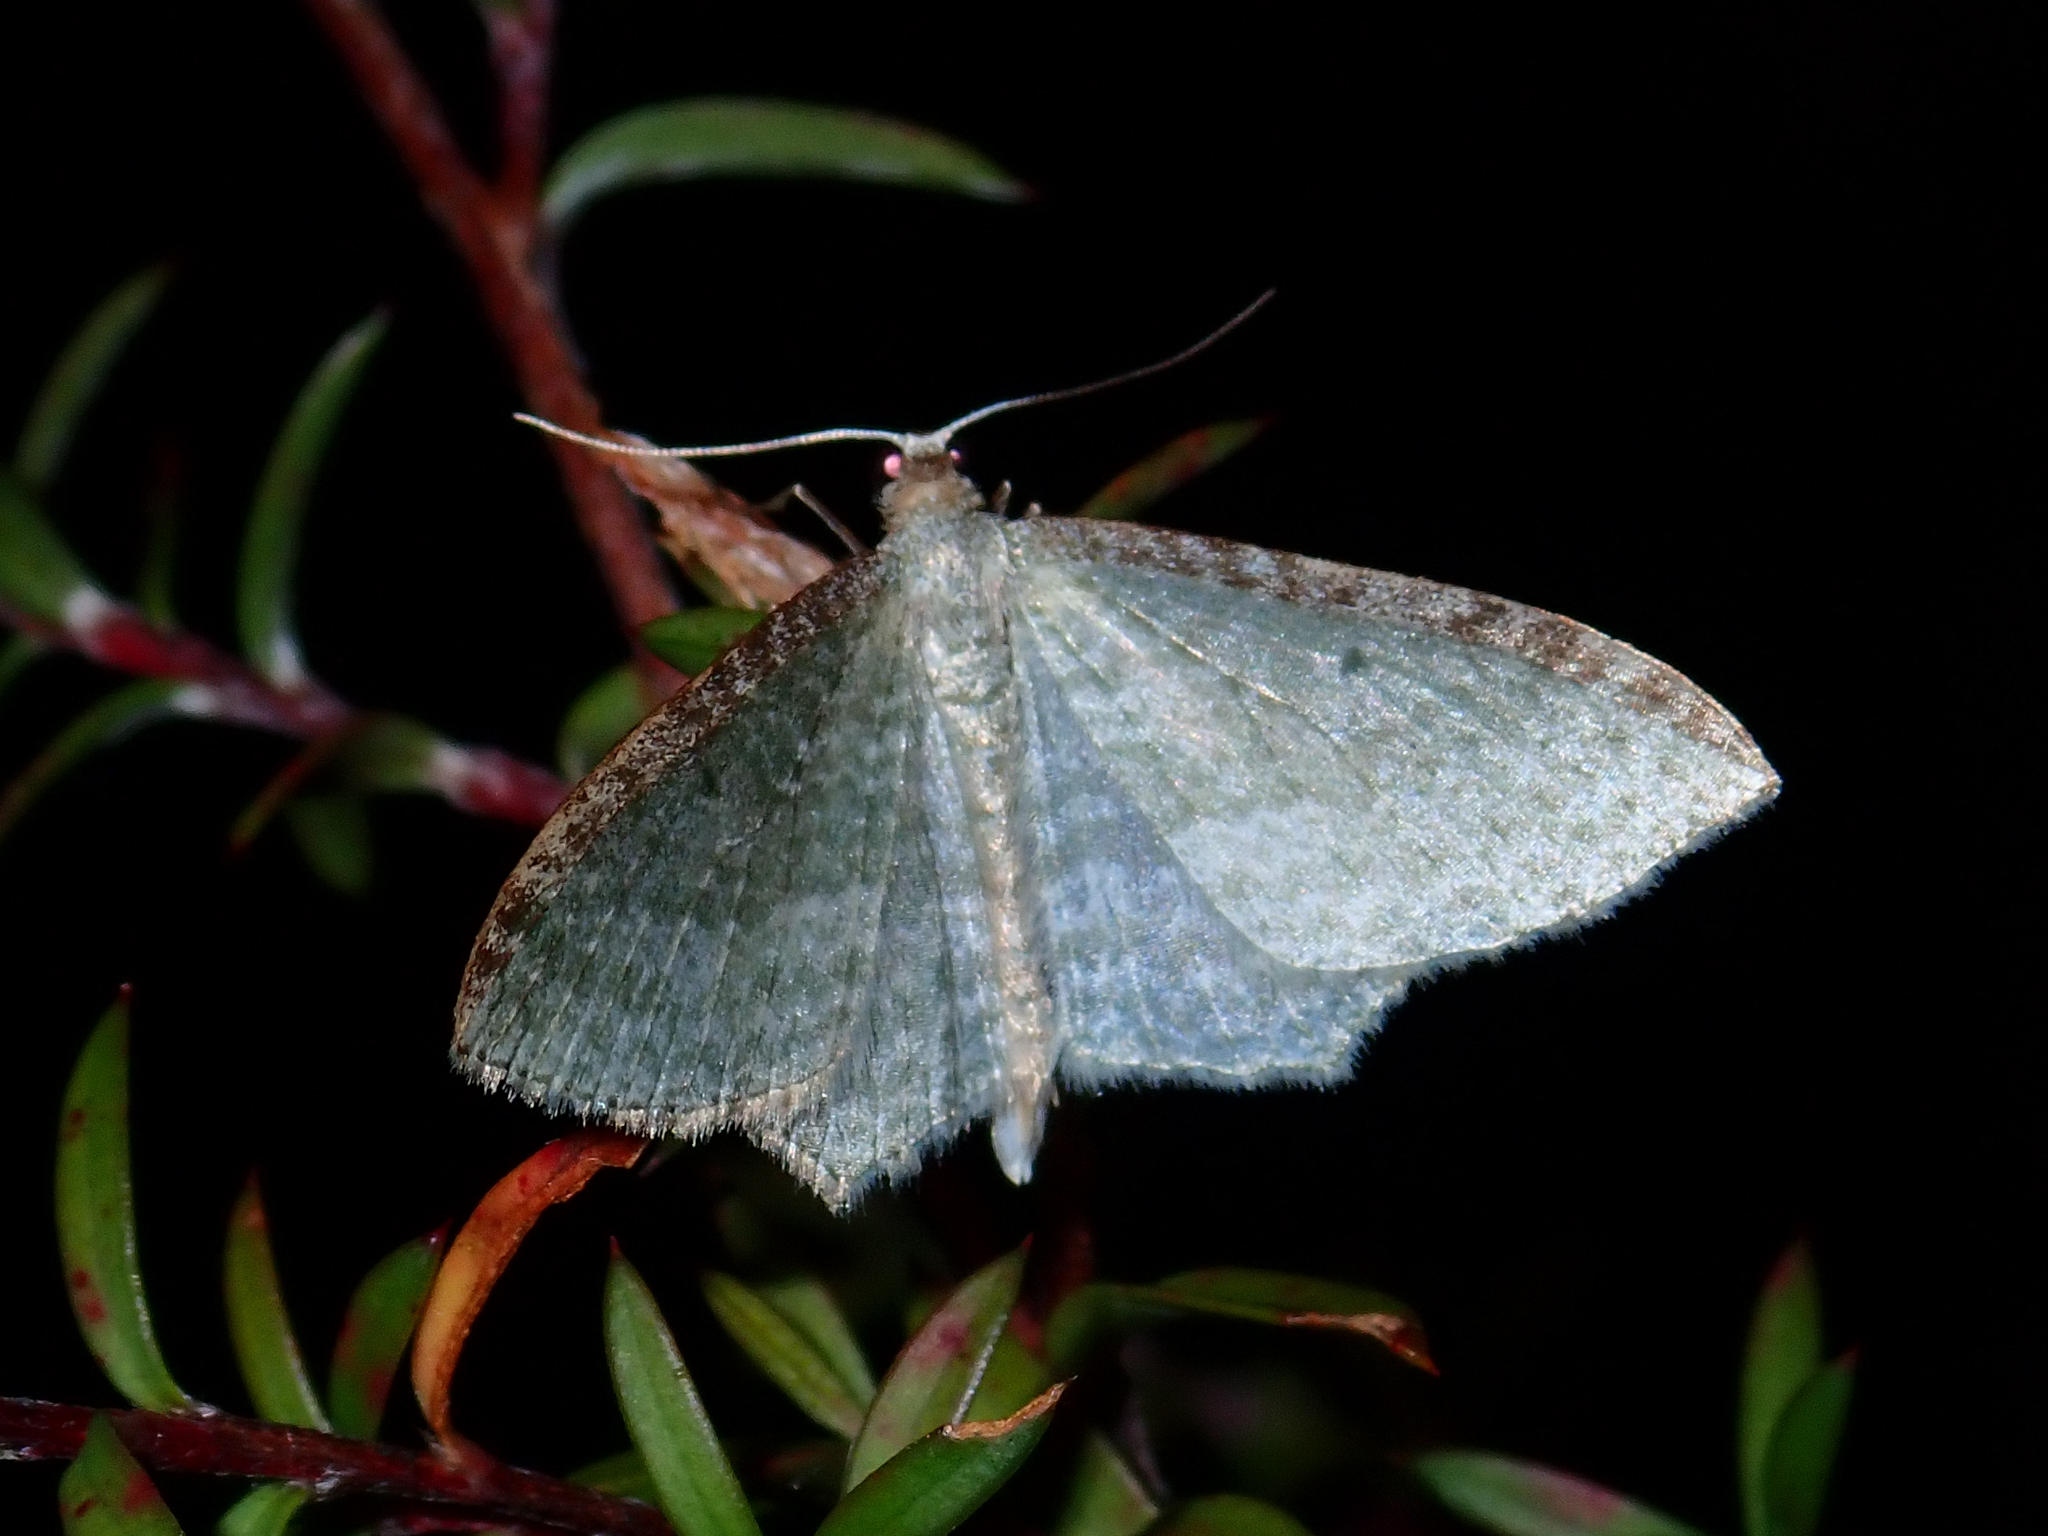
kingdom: Animalia
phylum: Arthropoda
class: Insecta
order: Lepidoptera
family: Geometridae
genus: Poecilasthena
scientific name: Poecilasthena pulchraria
